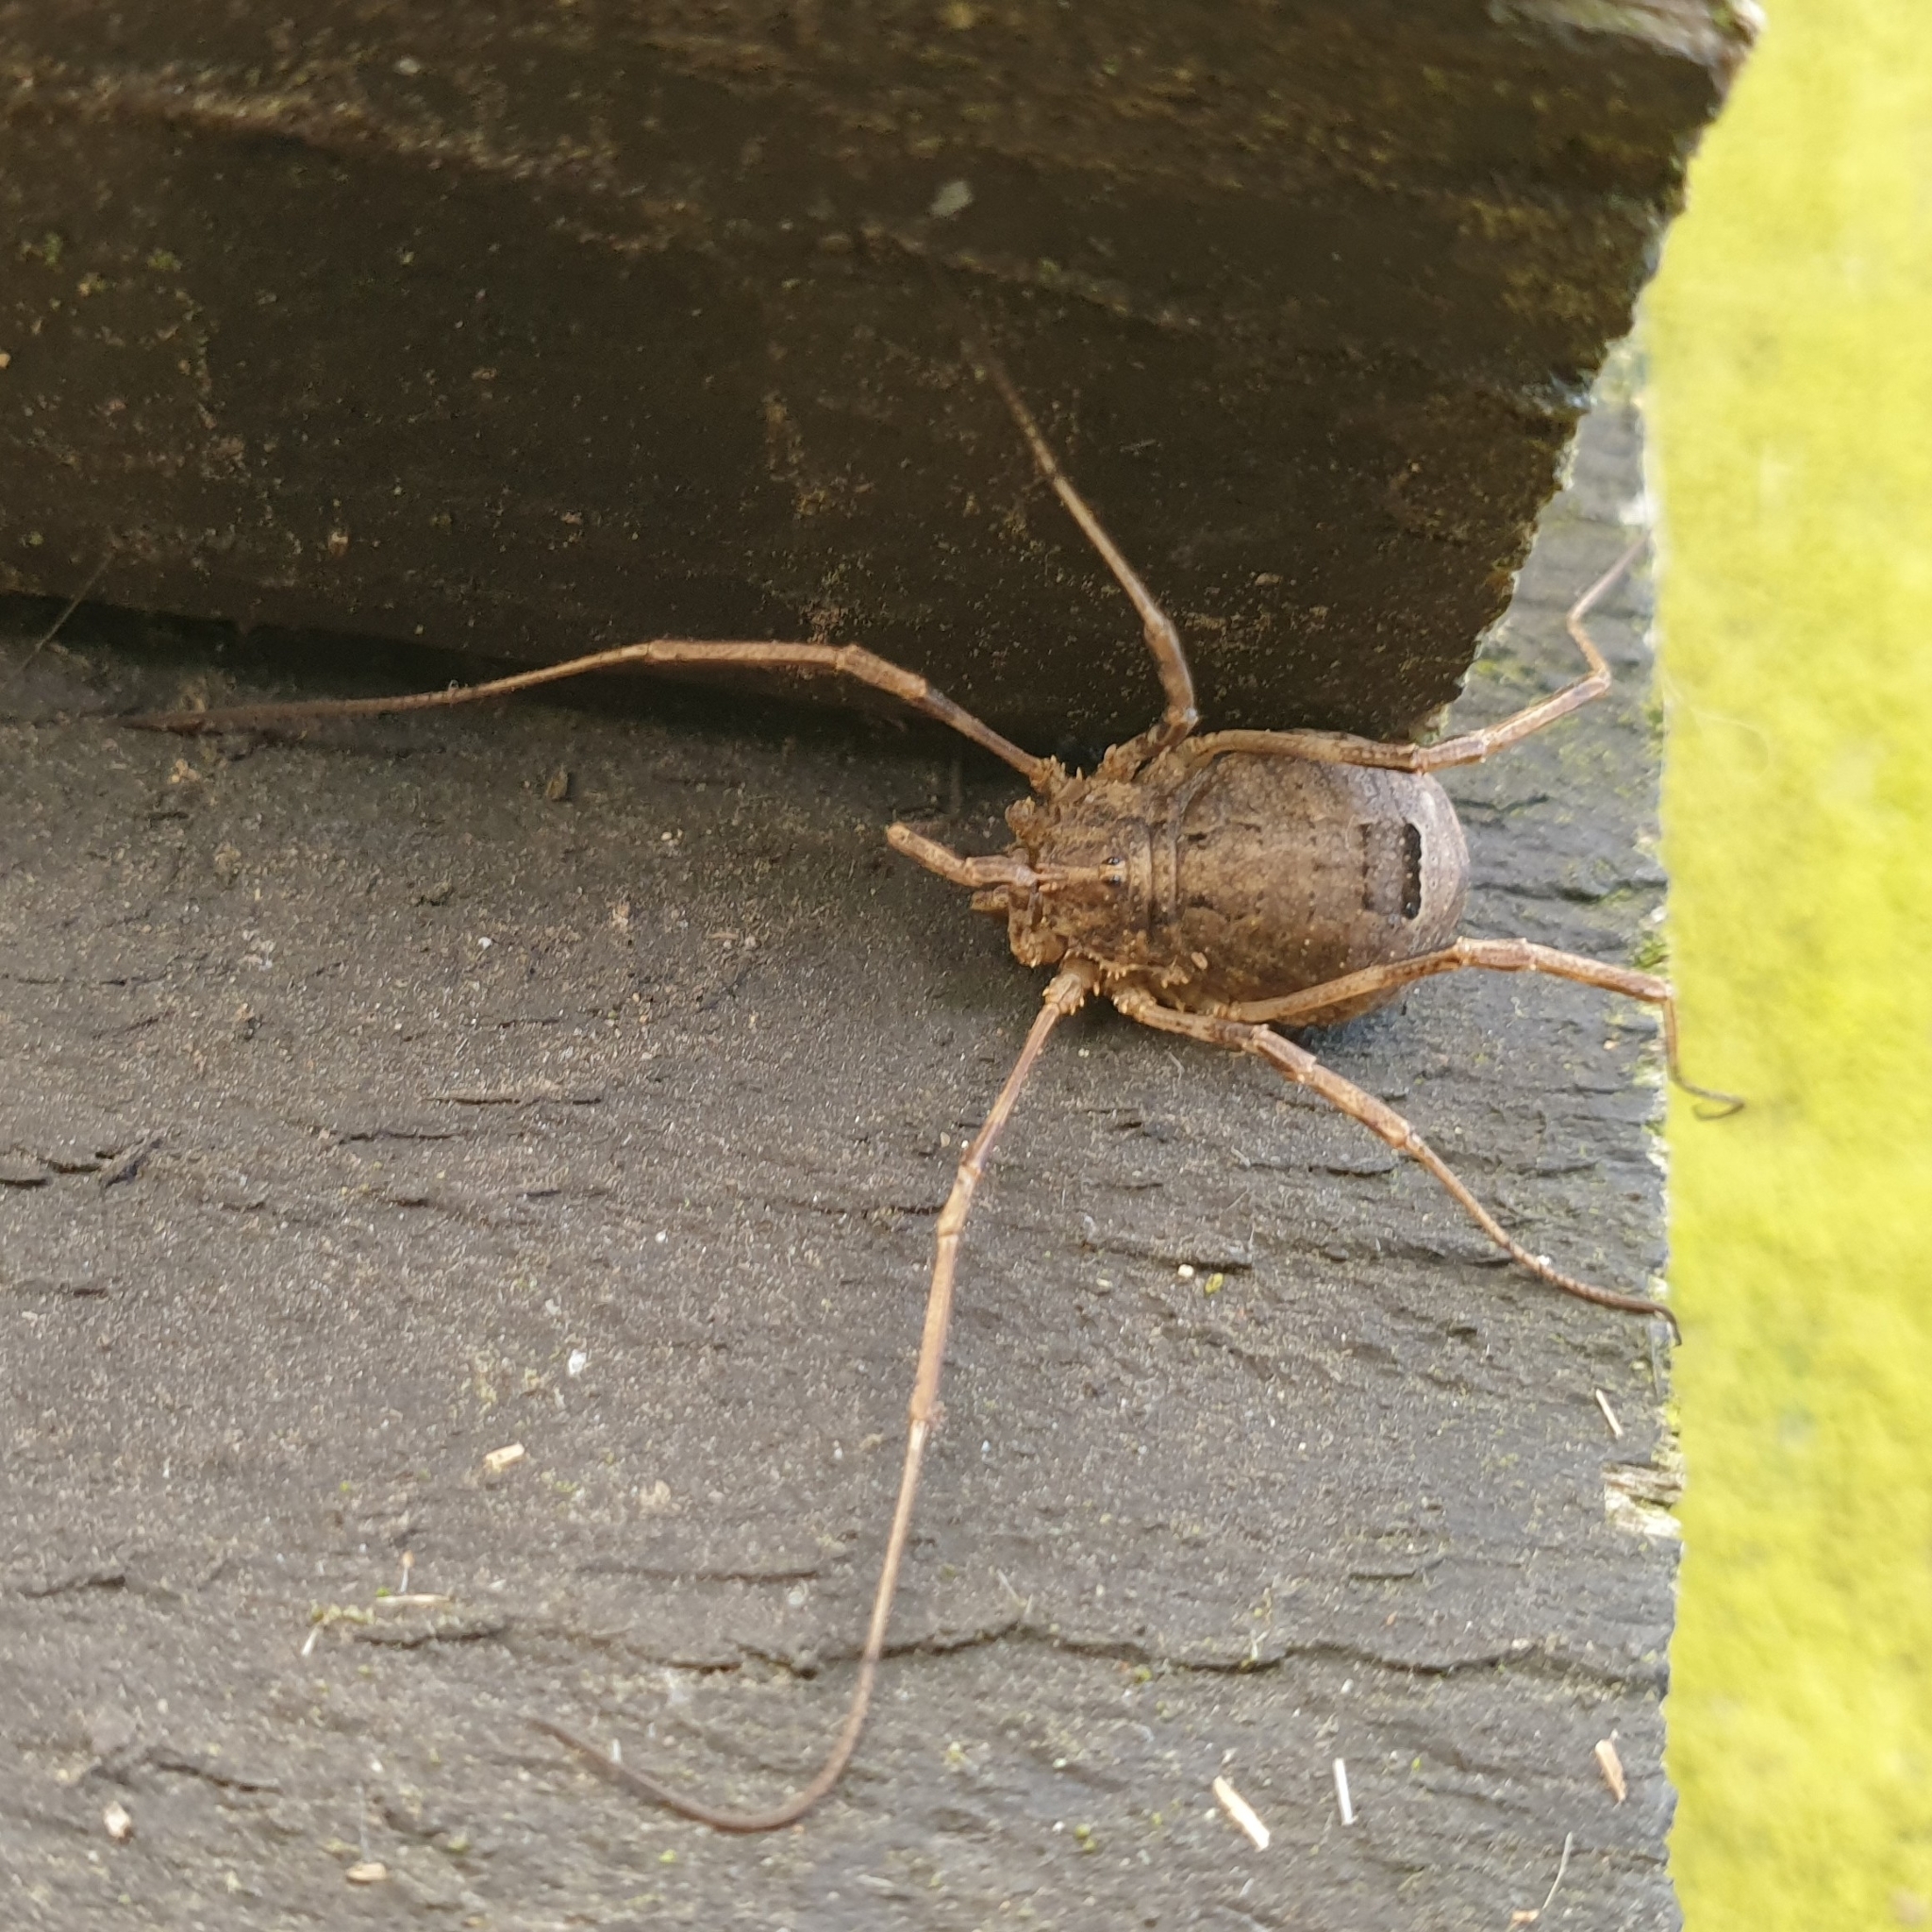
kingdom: Animalia
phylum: Arthropoda
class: Arachnida
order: Opiliones
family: Phalangiidae
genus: Odiellus
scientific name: Odiellus spinosus
